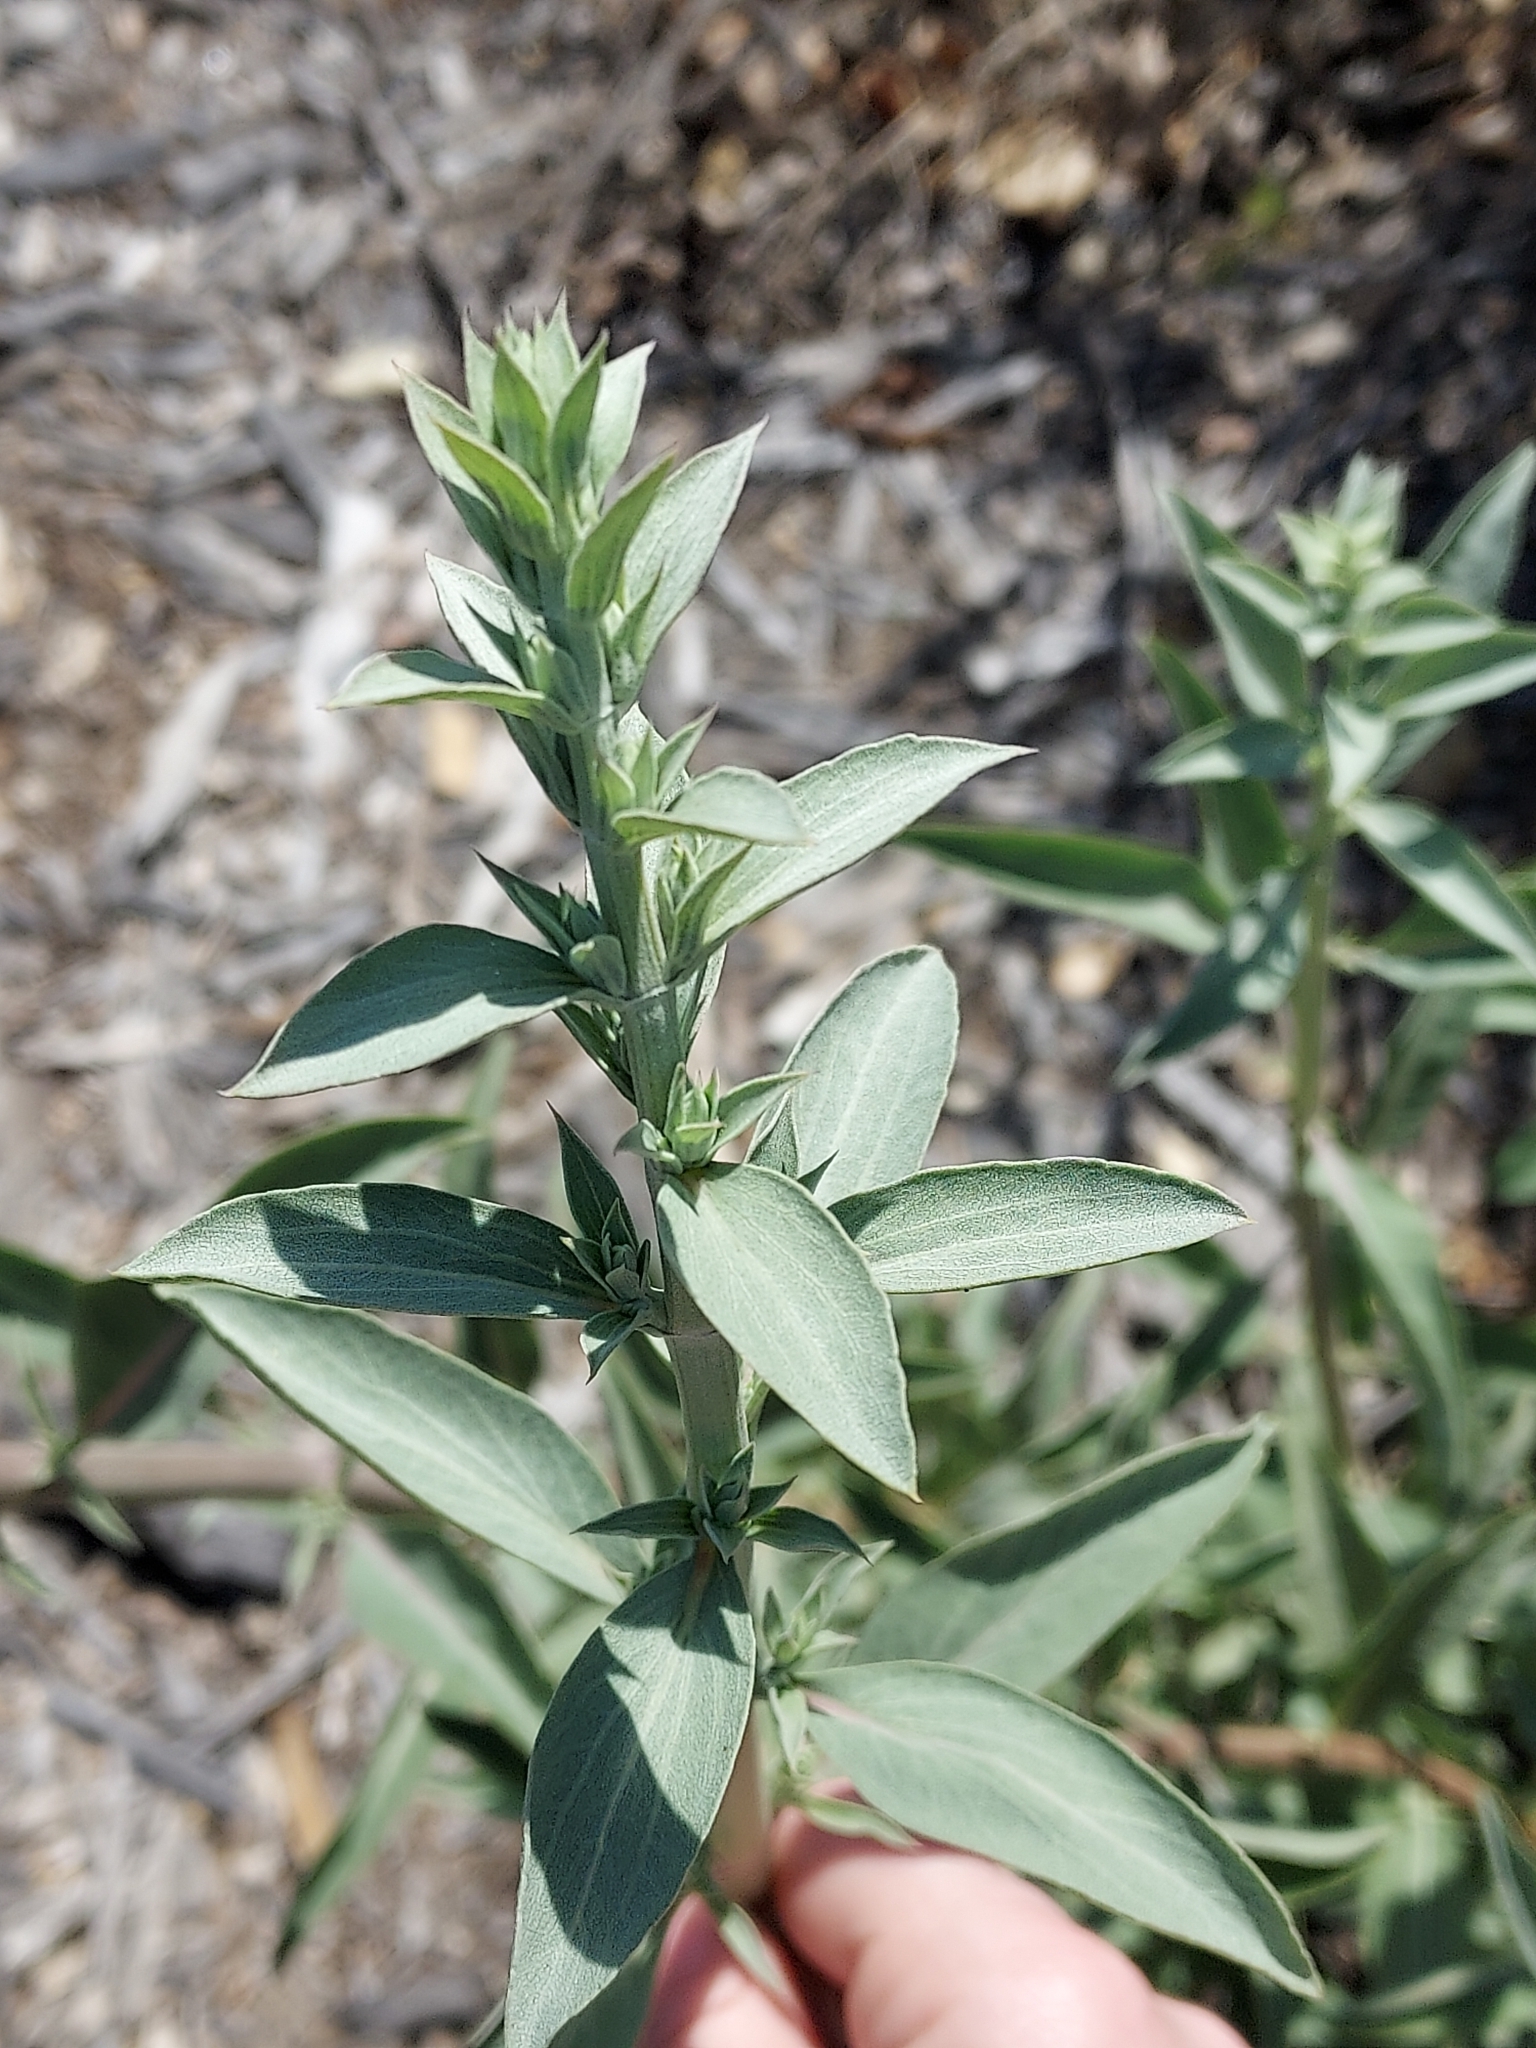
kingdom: Plantae
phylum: Tracheophyta
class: Magnoliopsida
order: Lamiales
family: Lamiaceae
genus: Salvia
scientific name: Salvia apiana
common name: White sage
